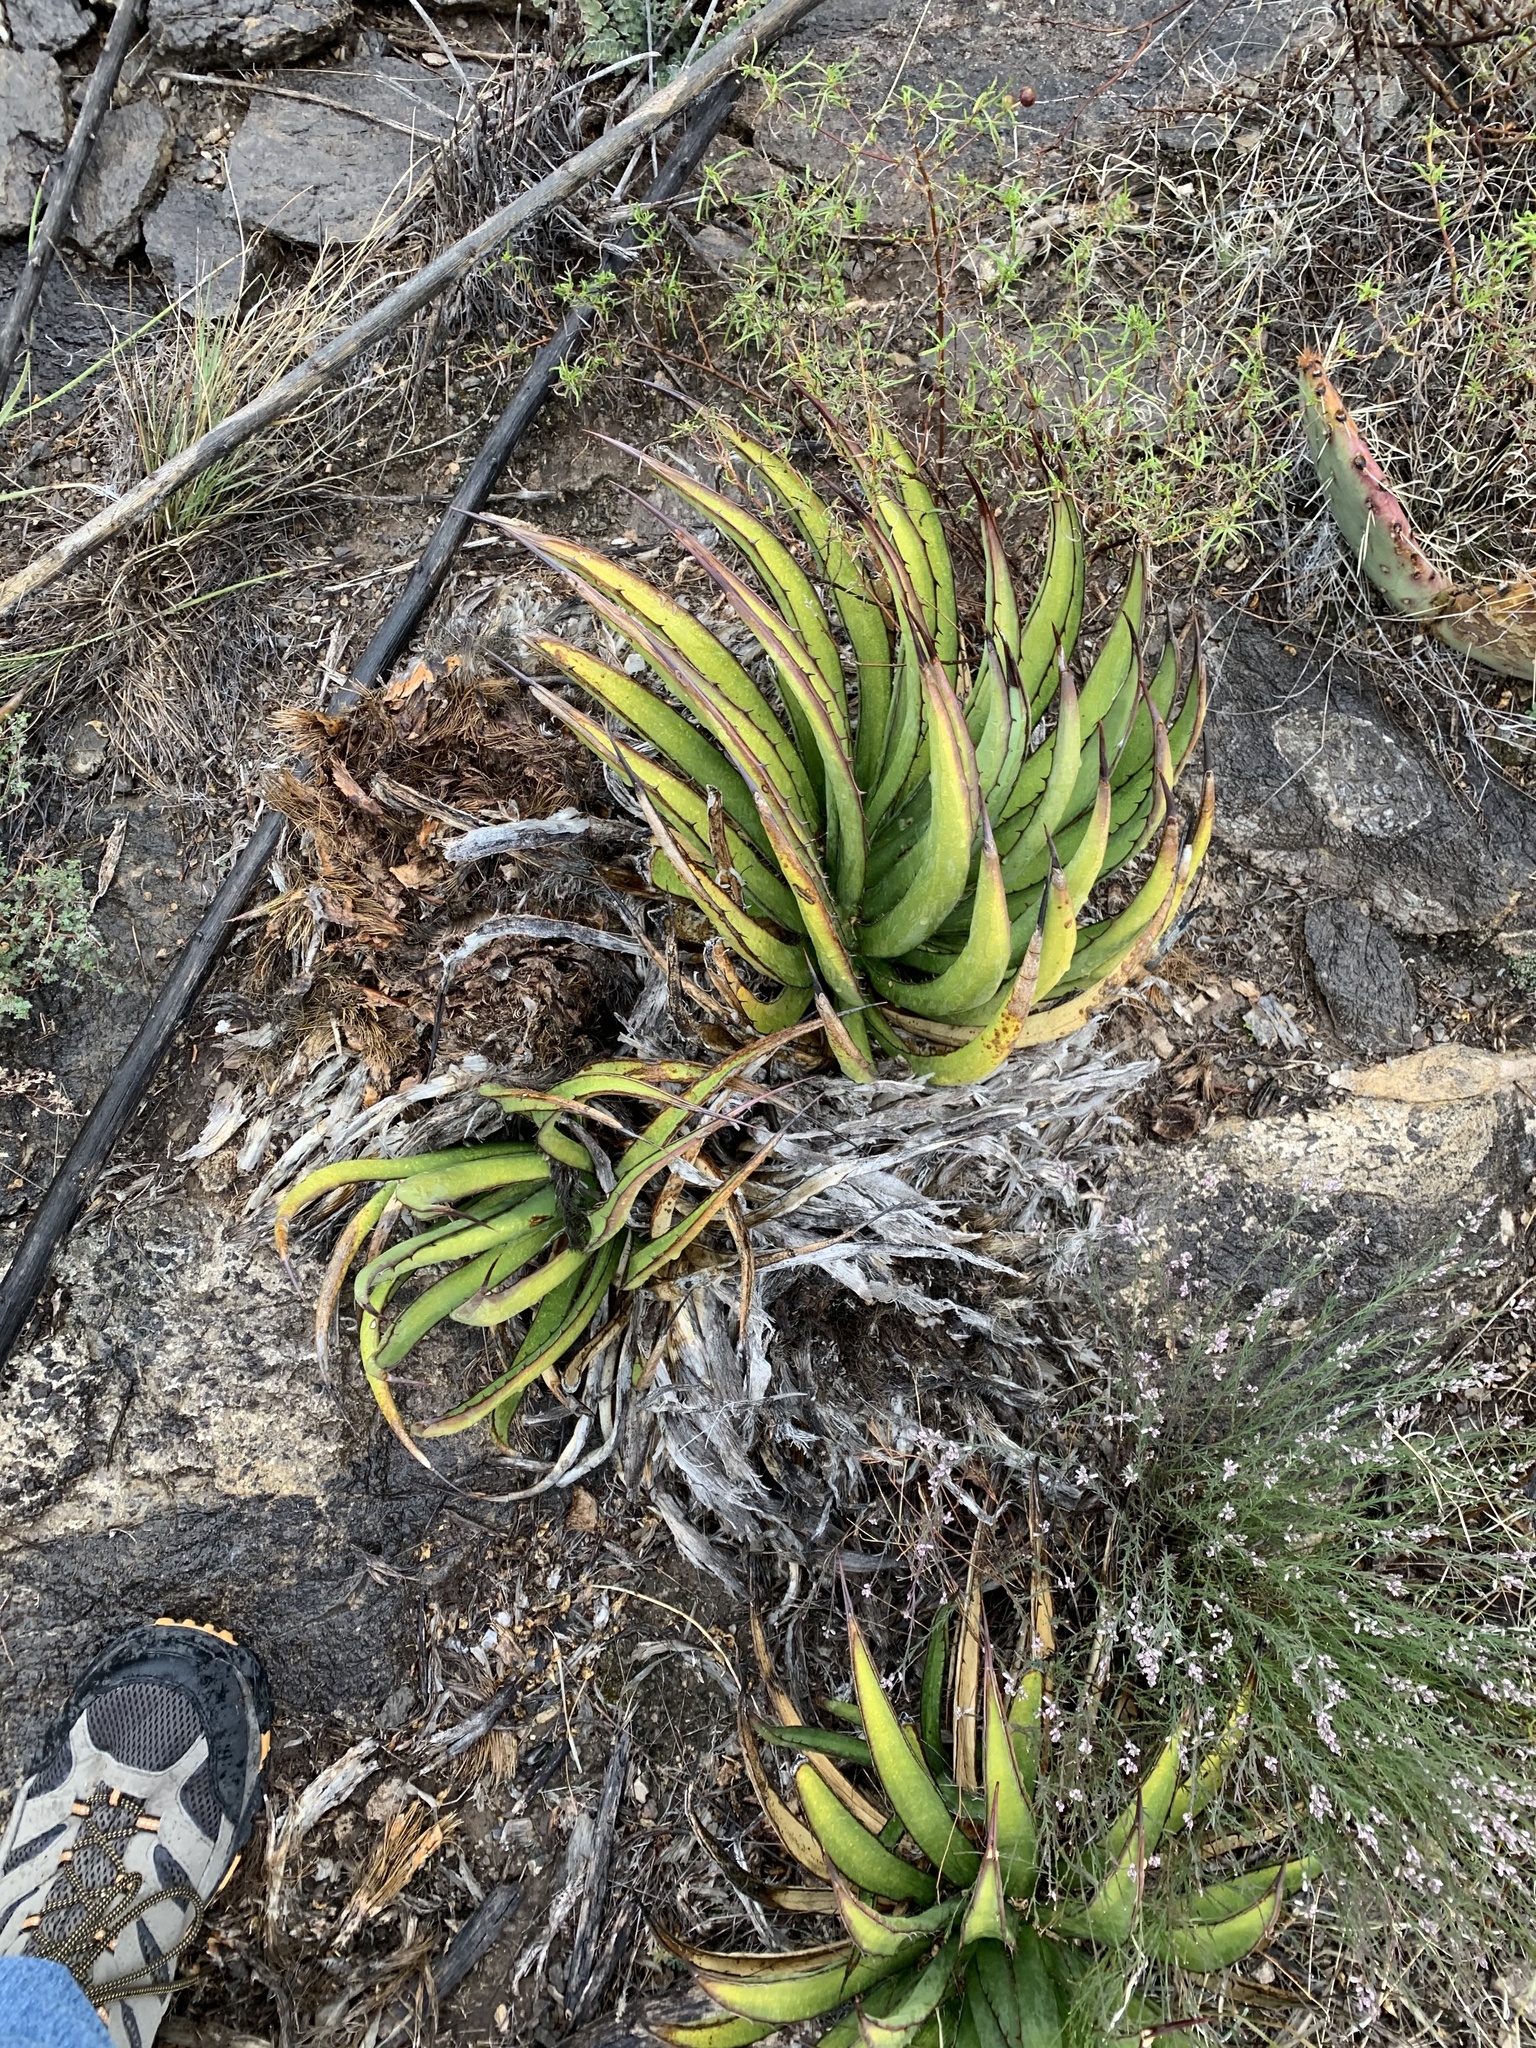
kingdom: Plantae
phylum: Tracheophyta
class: Liliopsida
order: Asparagales
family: Asparagaceae
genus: Agave
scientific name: Agave lechuguilla
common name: Lecheguilla agave
